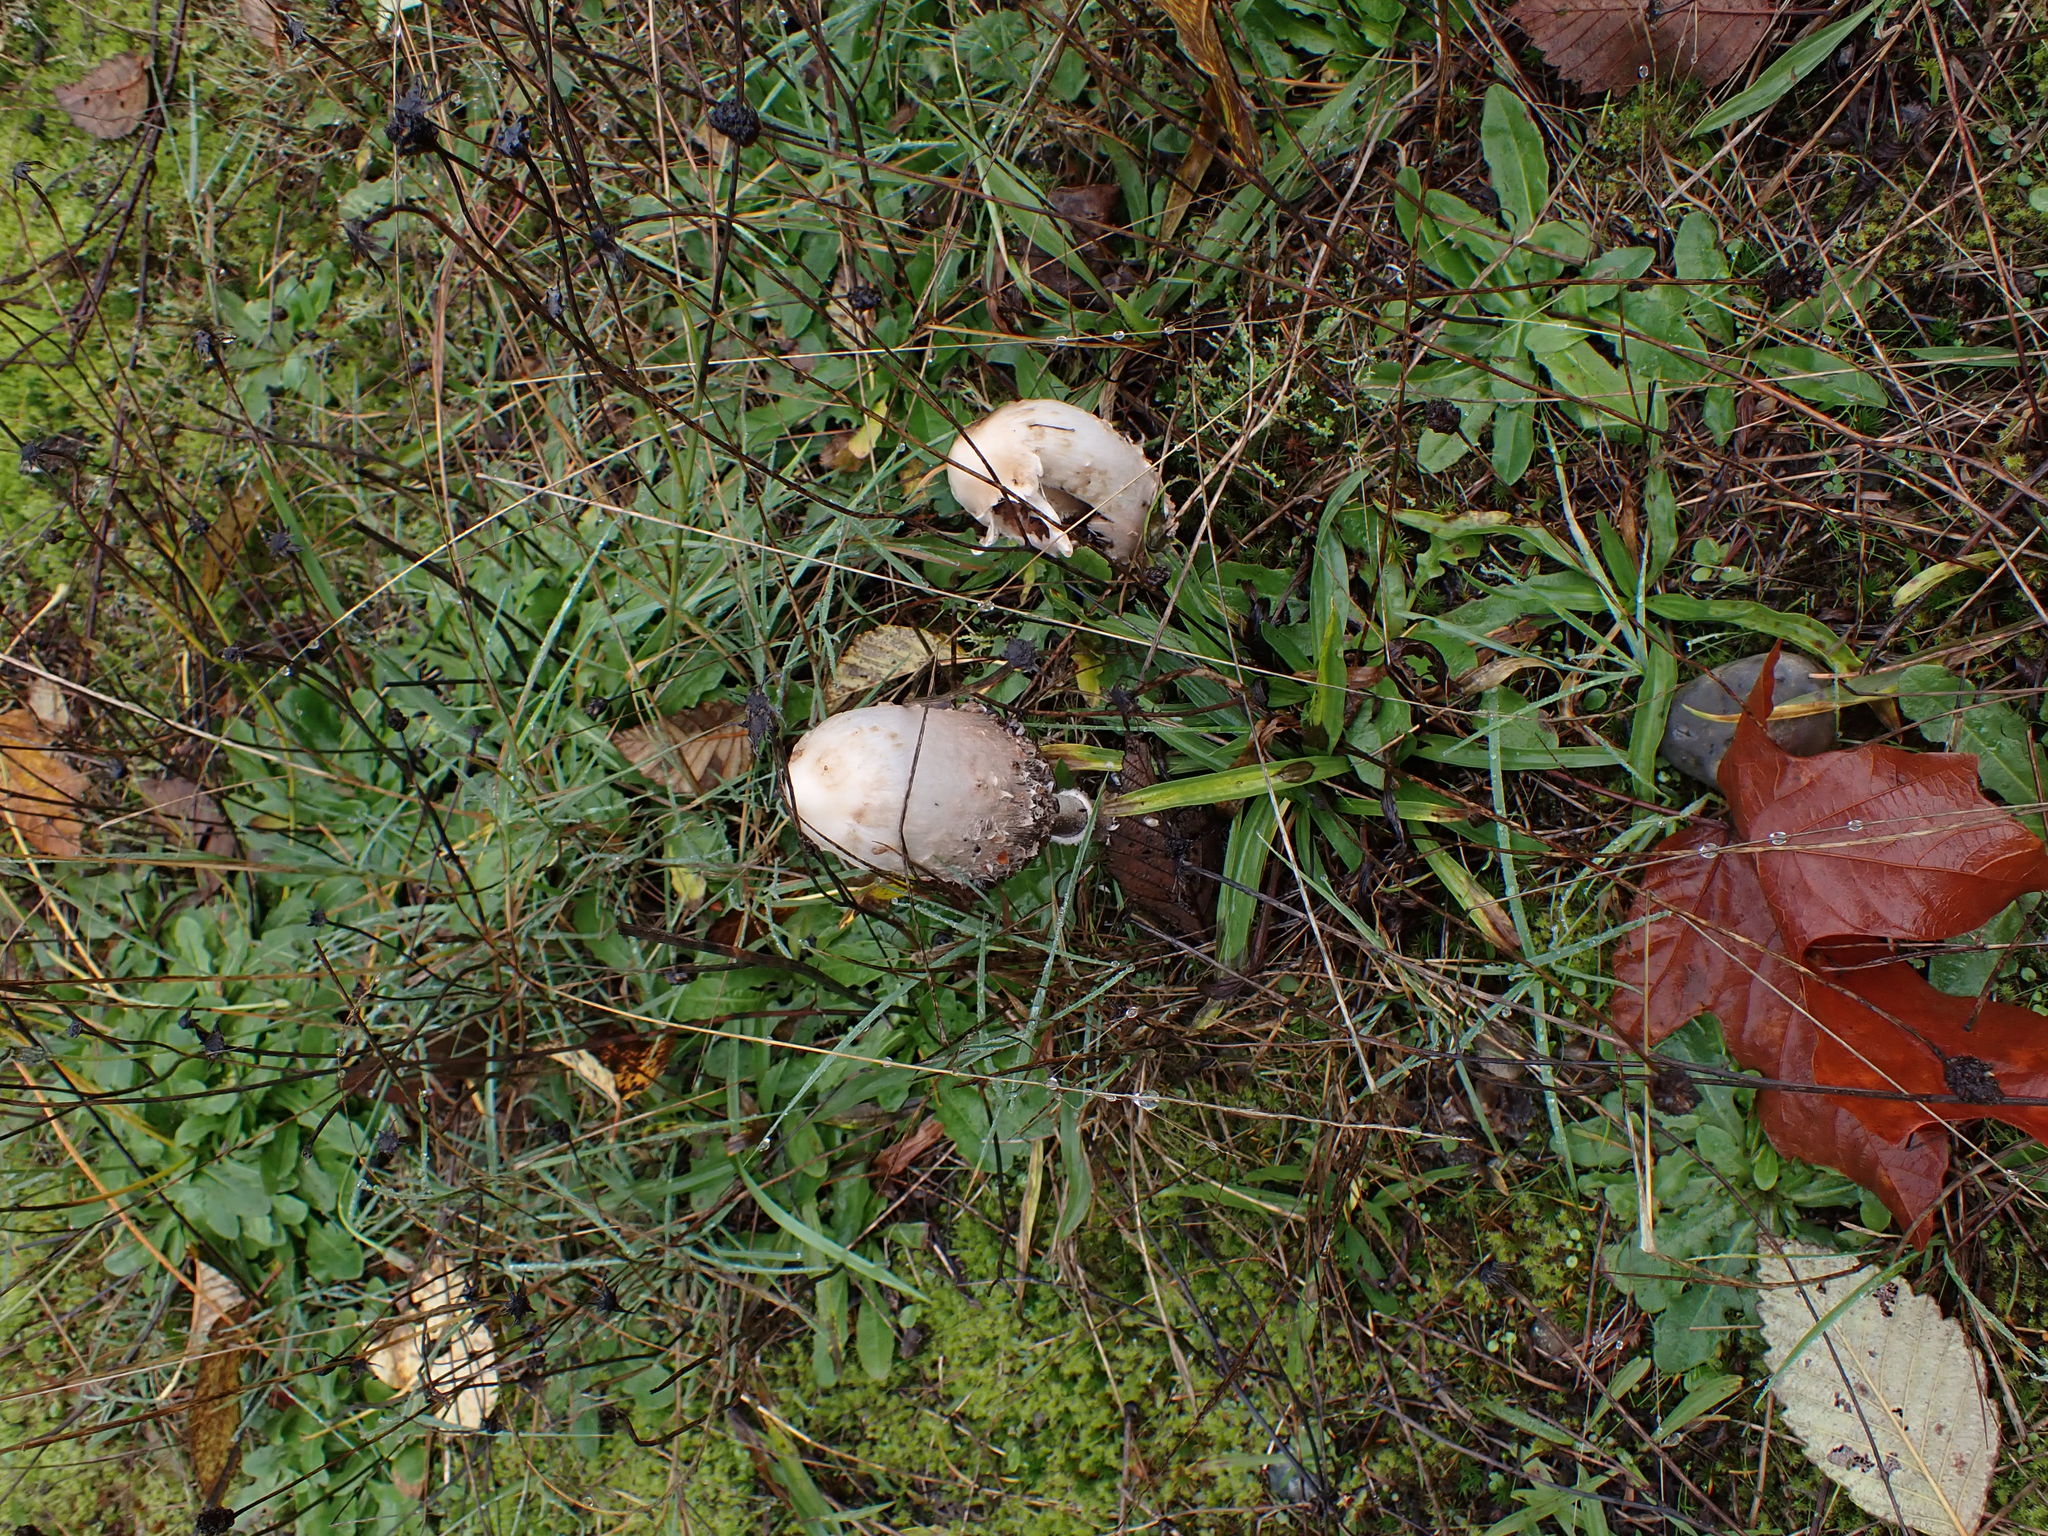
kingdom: Fungi
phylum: Basidiomycota
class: Agaricomycetes
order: Agaricales
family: Agaricaceae
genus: Coprinus
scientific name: Coprinus comatus
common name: Lawyer's wig
